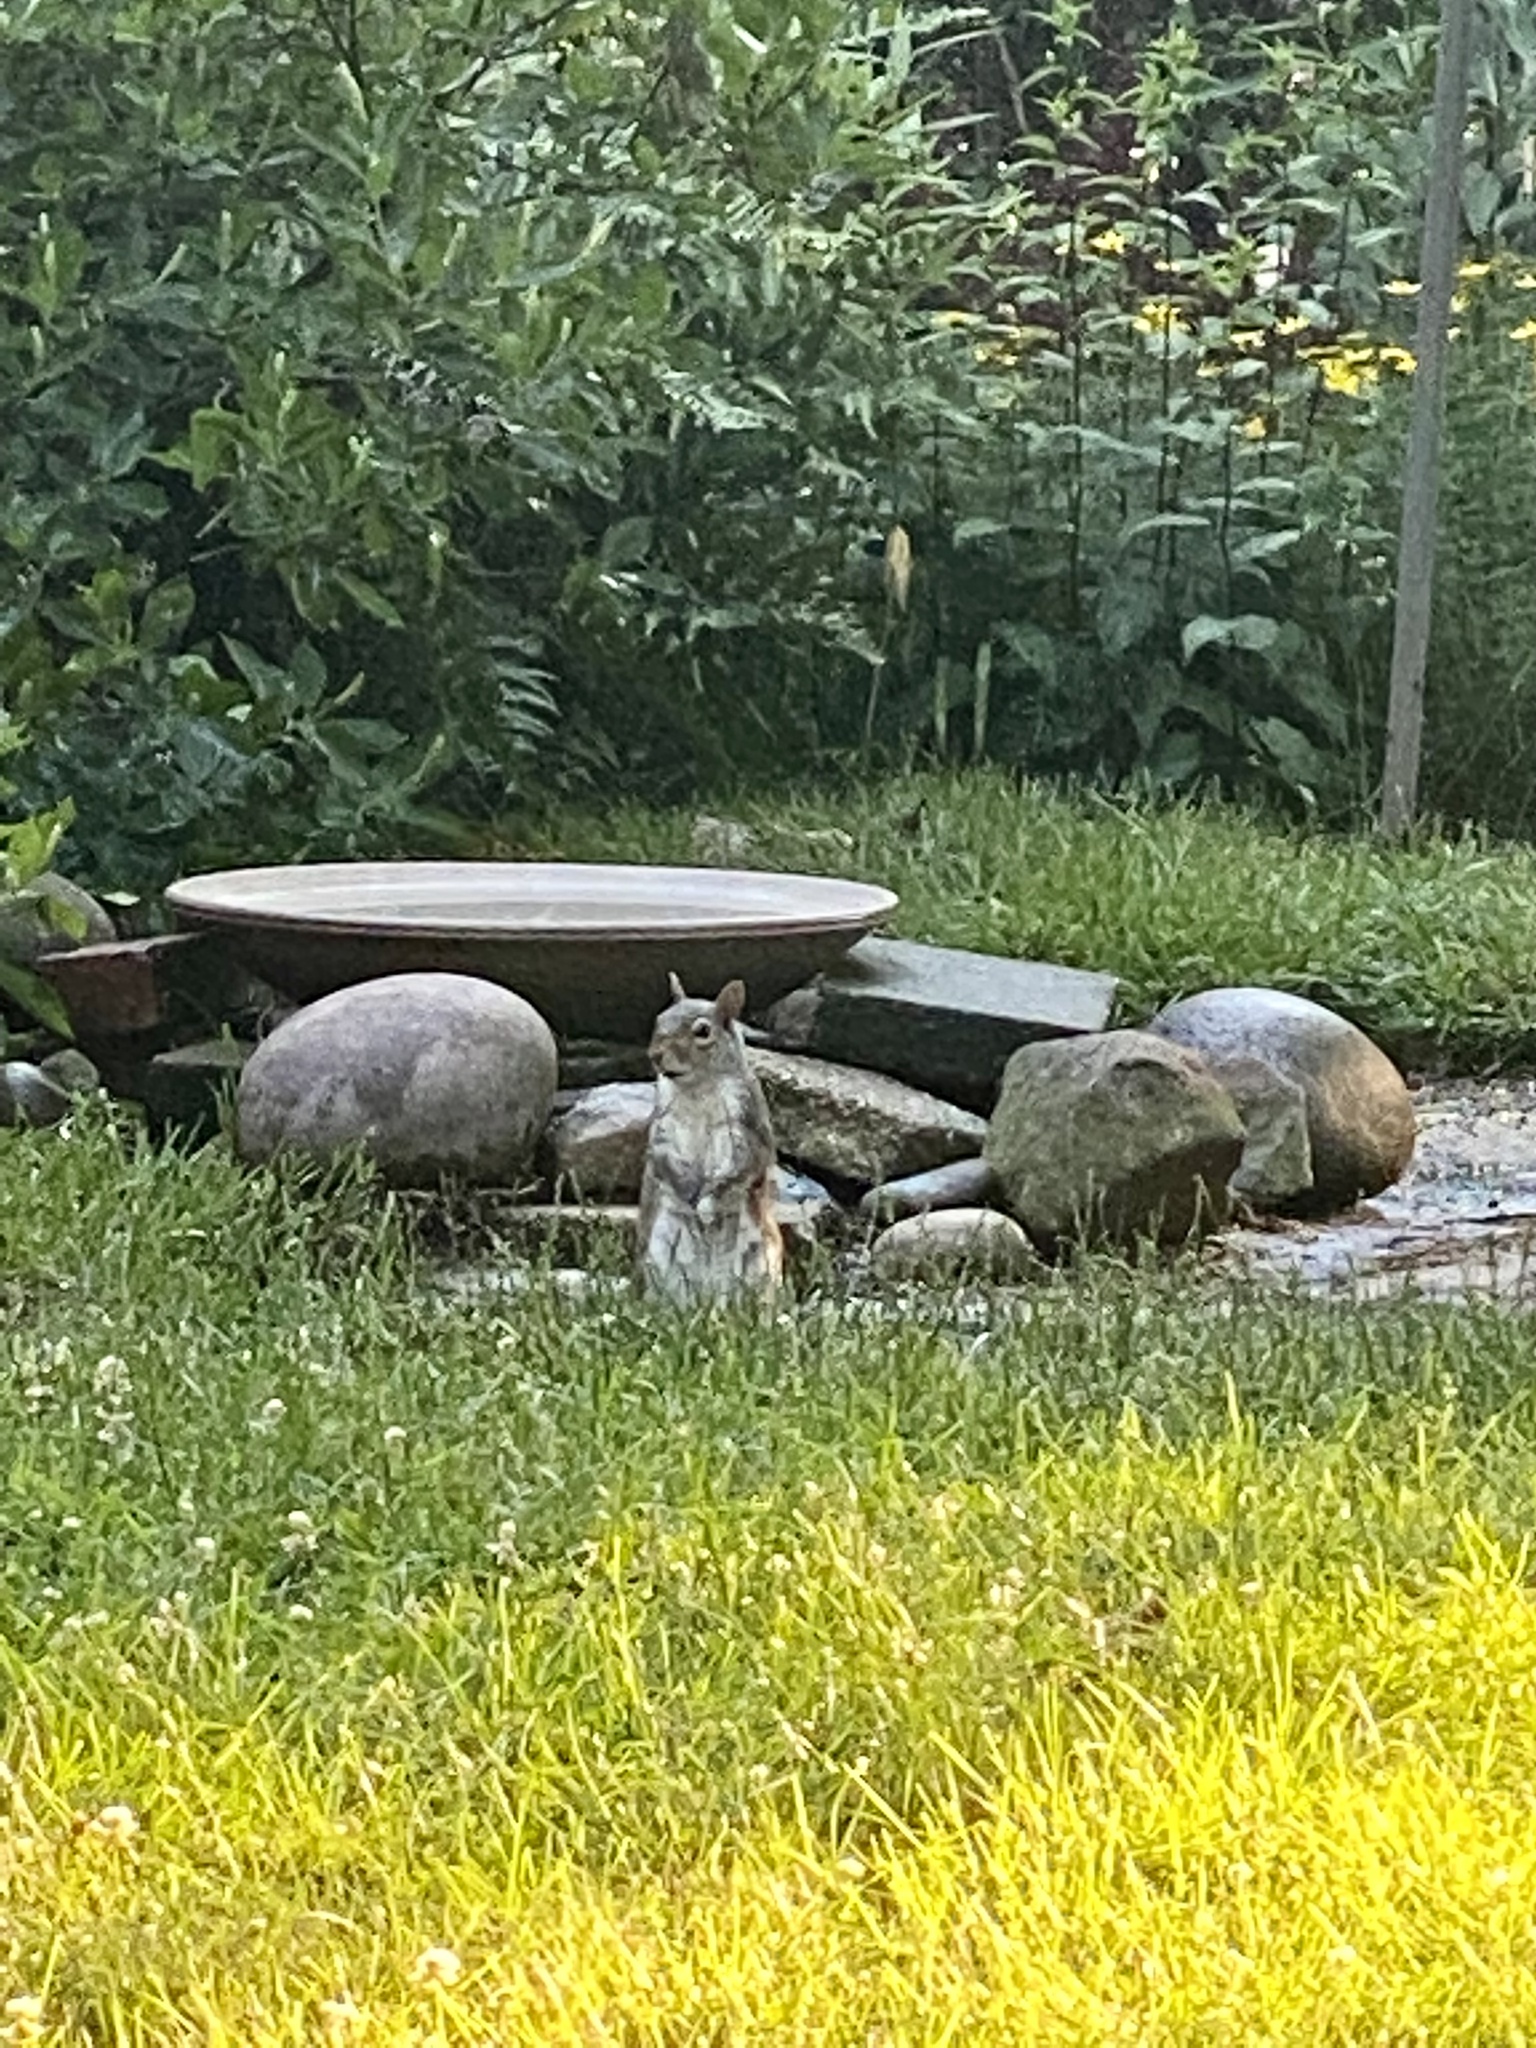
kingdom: Animalia
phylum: Chordata
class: Mammalia
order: Rodentia
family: Sciuridae
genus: Sciurus
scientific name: Sciurus carolinensis
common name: Eastern gray squirrel
